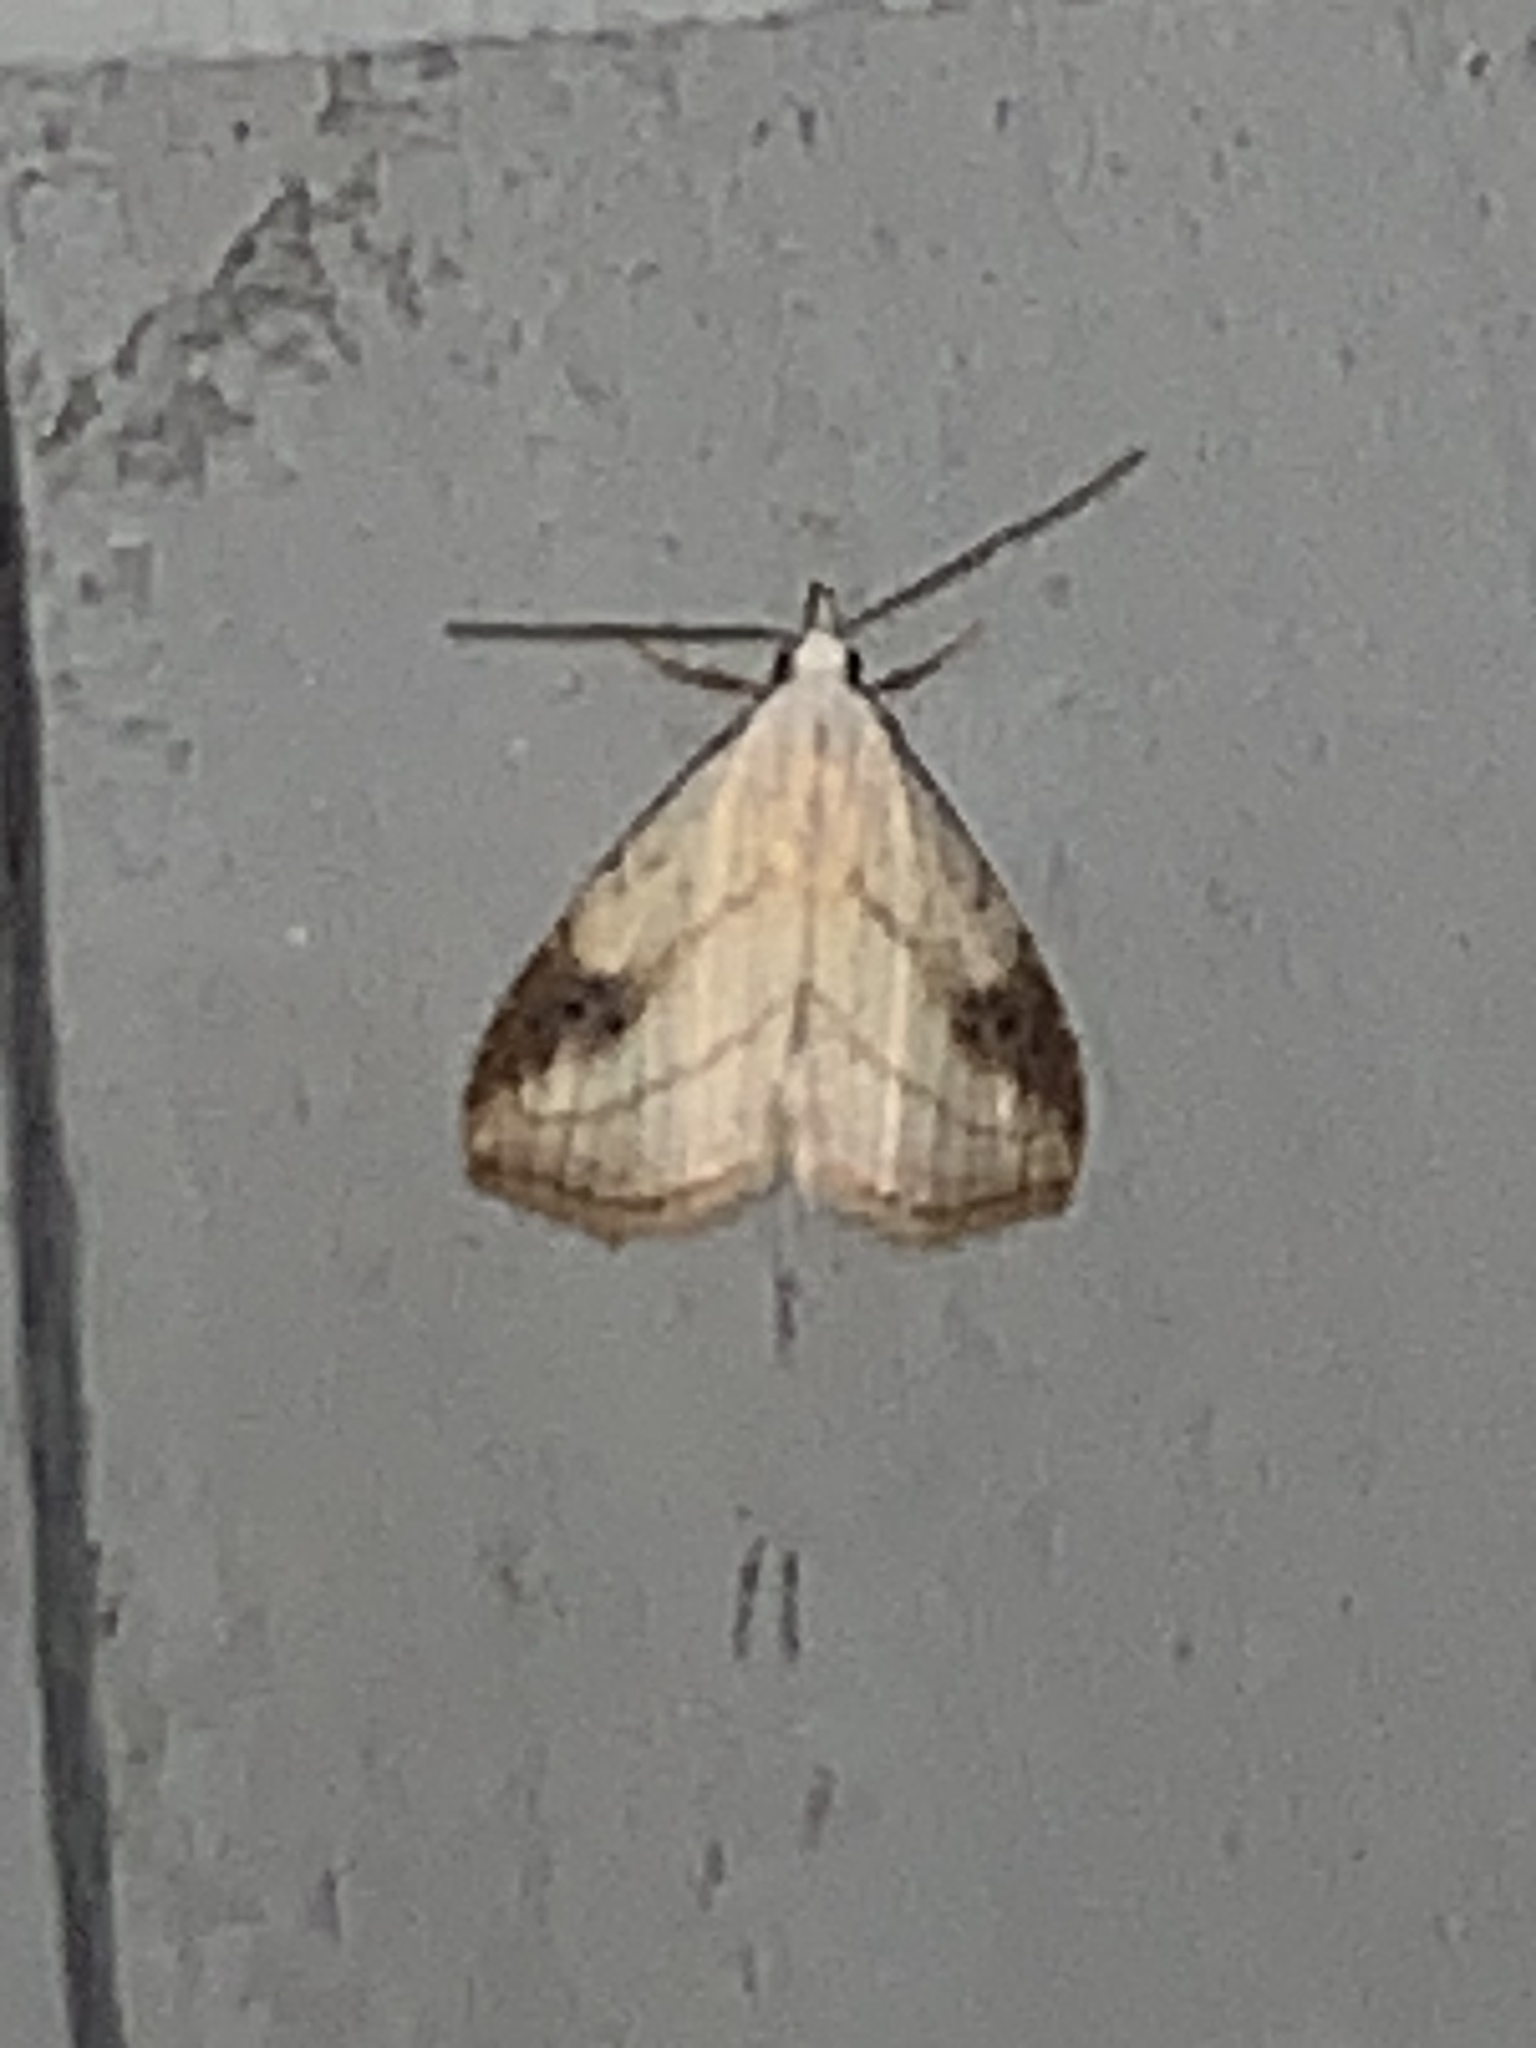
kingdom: Animalia
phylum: Arthropoda
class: Insecta
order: Lepidoptera
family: Erebidae
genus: Rivula
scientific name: Rivula propinqualis
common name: Spotted grass moth
